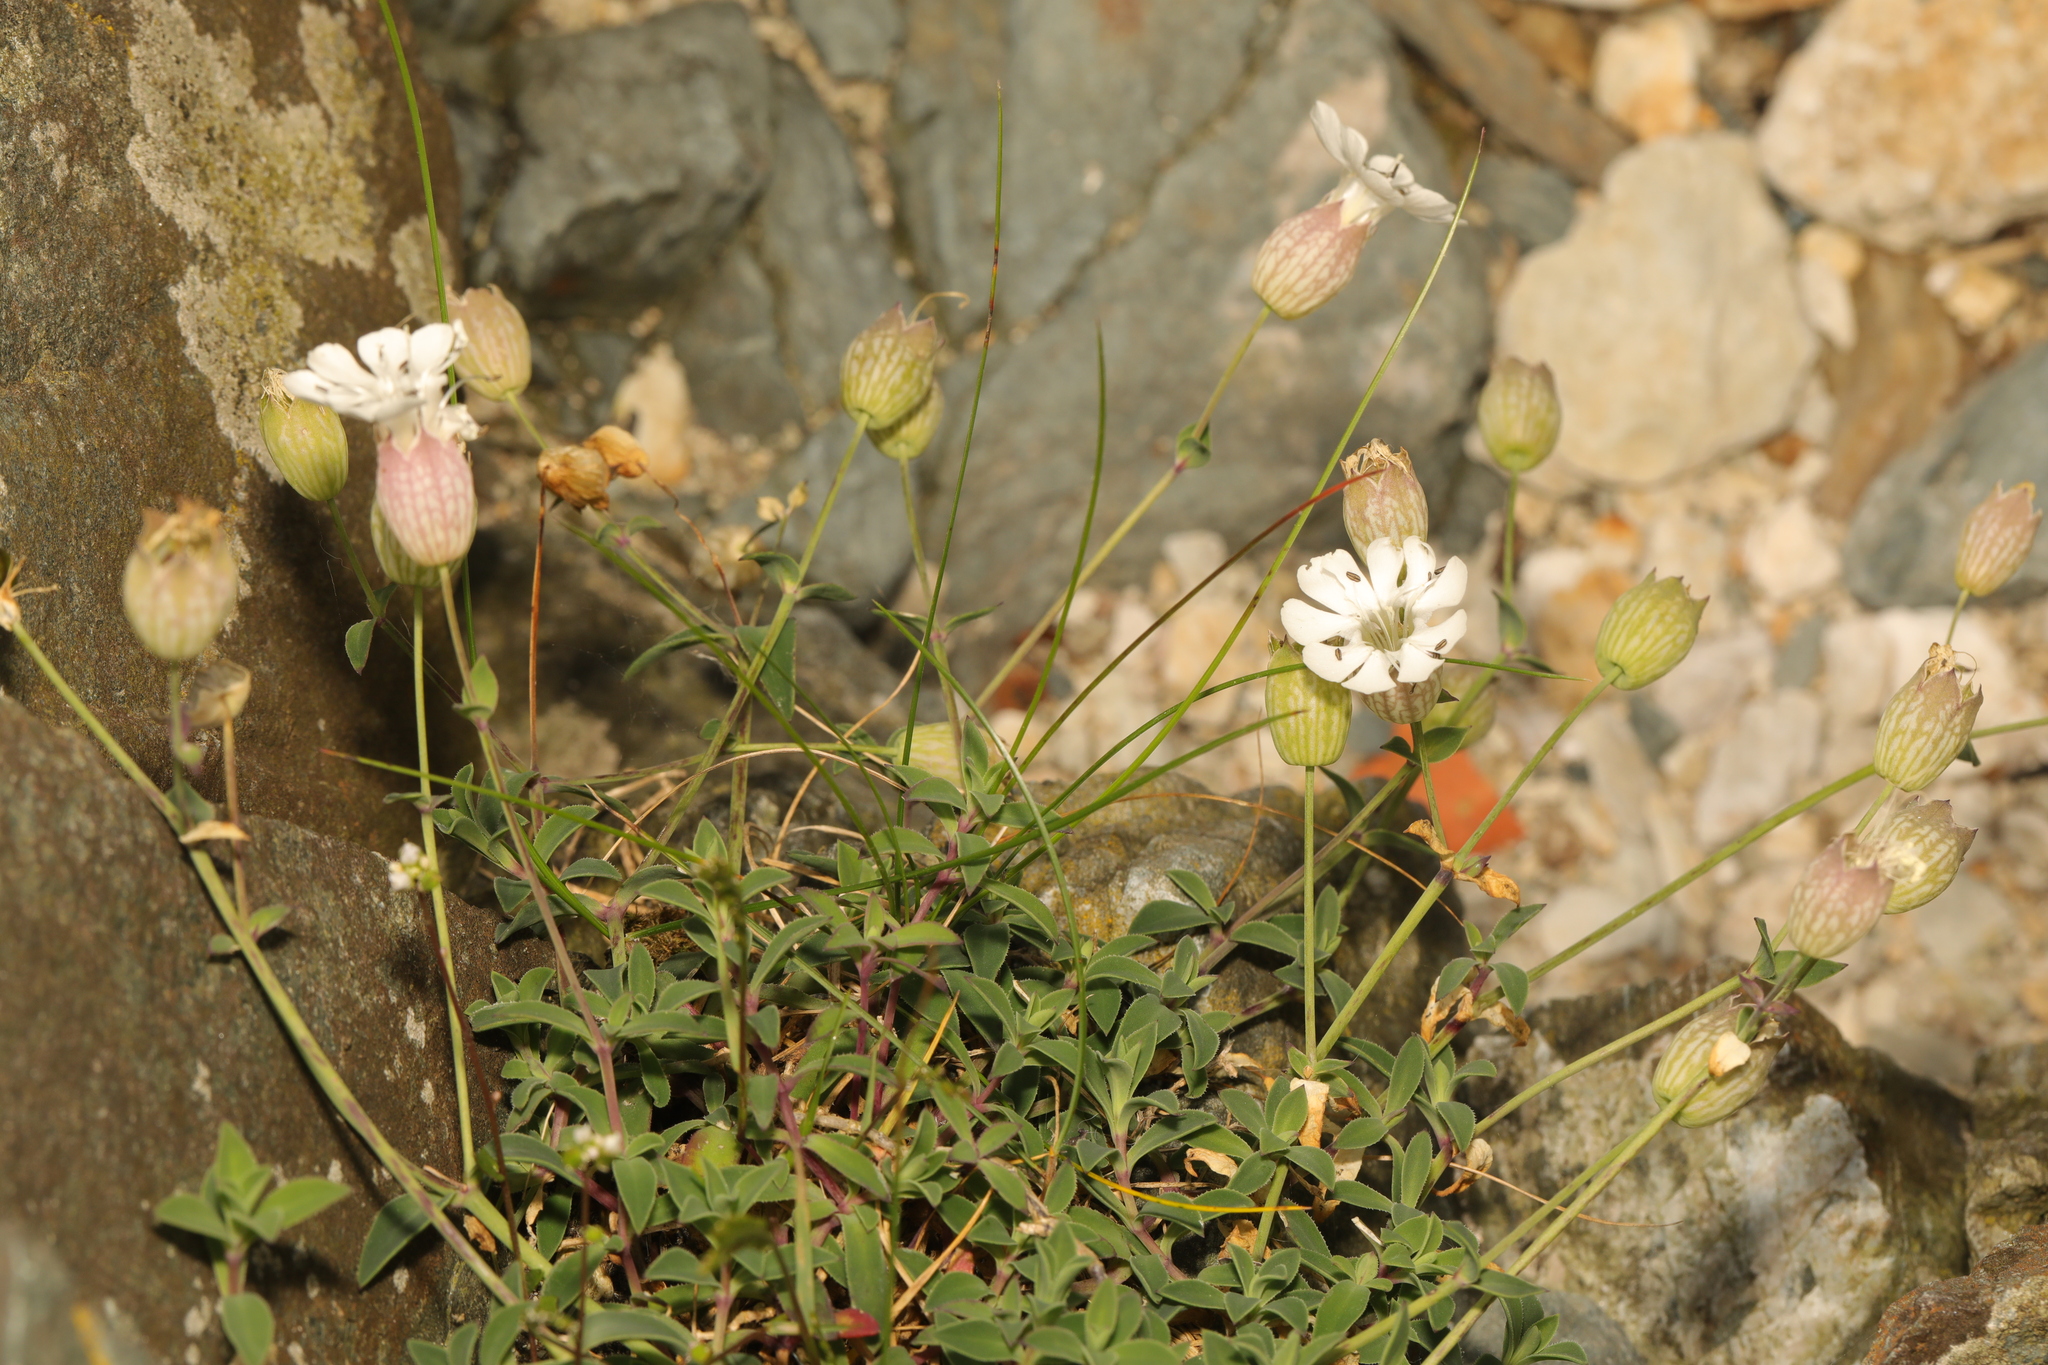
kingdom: Plantae
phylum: Tracheophyta
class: Magnoliopsida
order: Caryophyllales
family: Caryophyllaceae
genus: Silene
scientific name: Silene uniflora
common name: Sea campion
